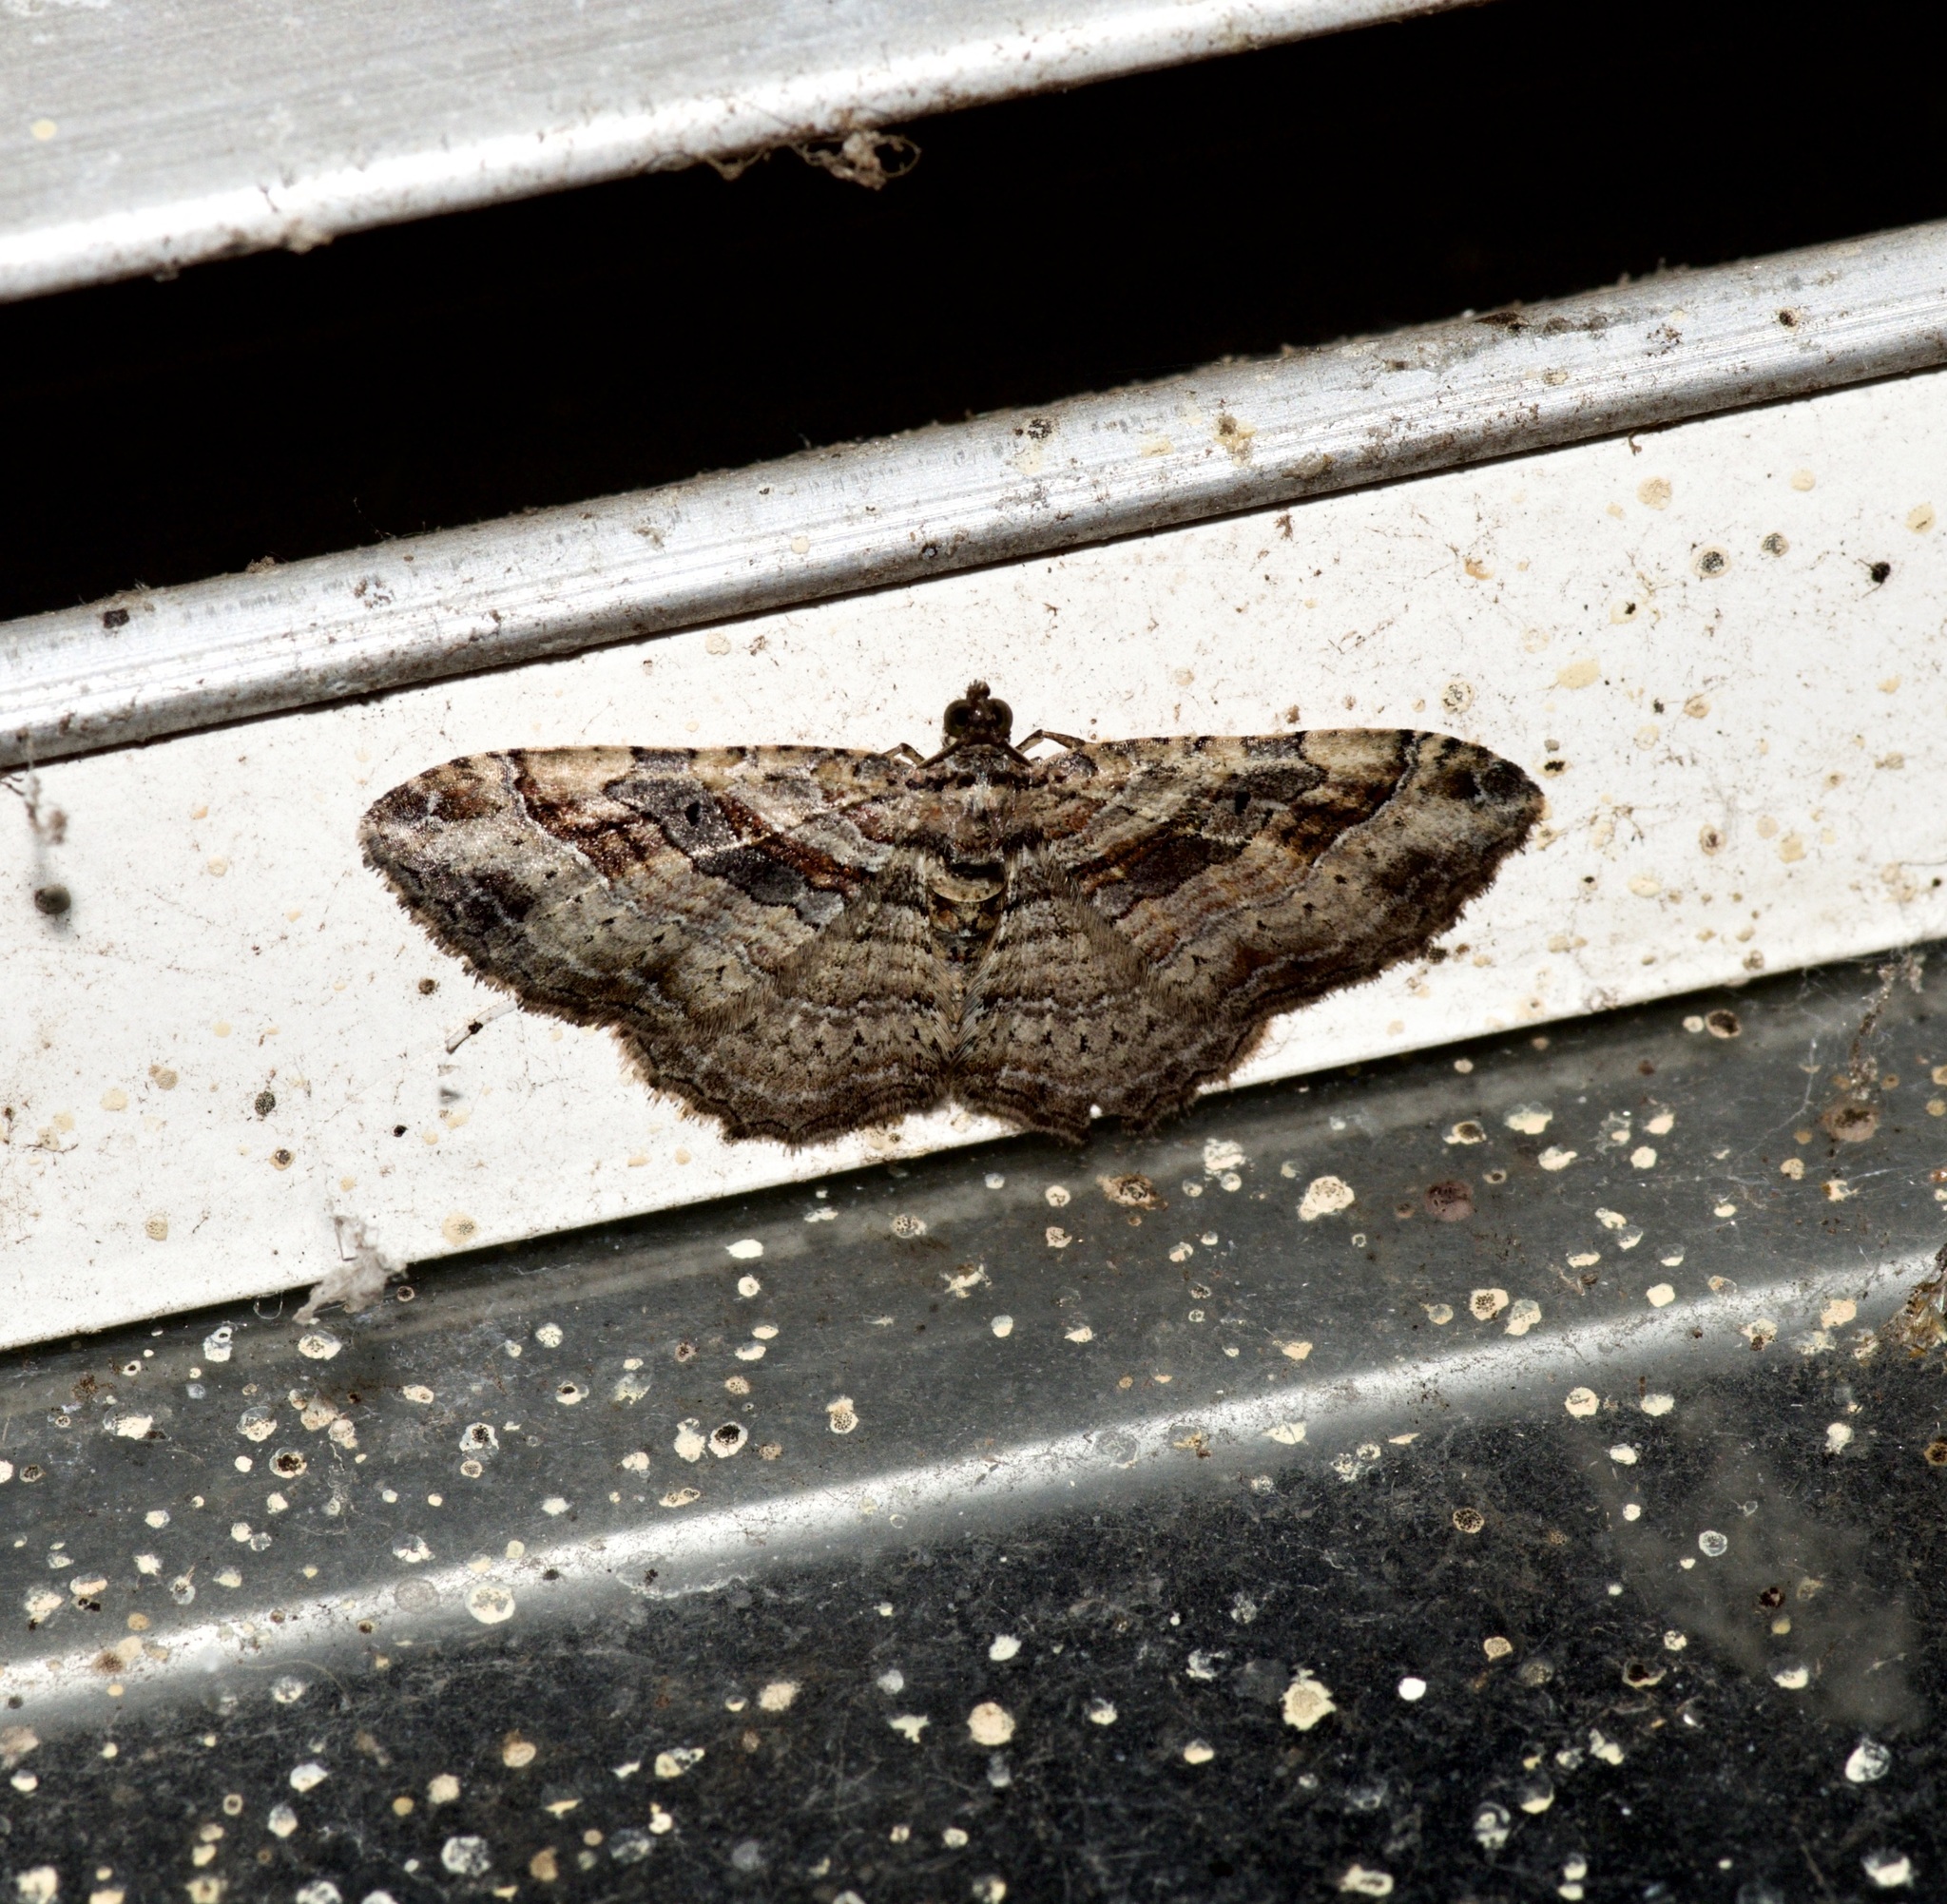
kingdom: Animalia
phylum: Arthropoda
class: Insecta
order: Lepidoptera
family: Geometridae
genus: Costaconvexa
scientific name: Costaconvexa centrostrigaria
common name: Bent-line carpet
